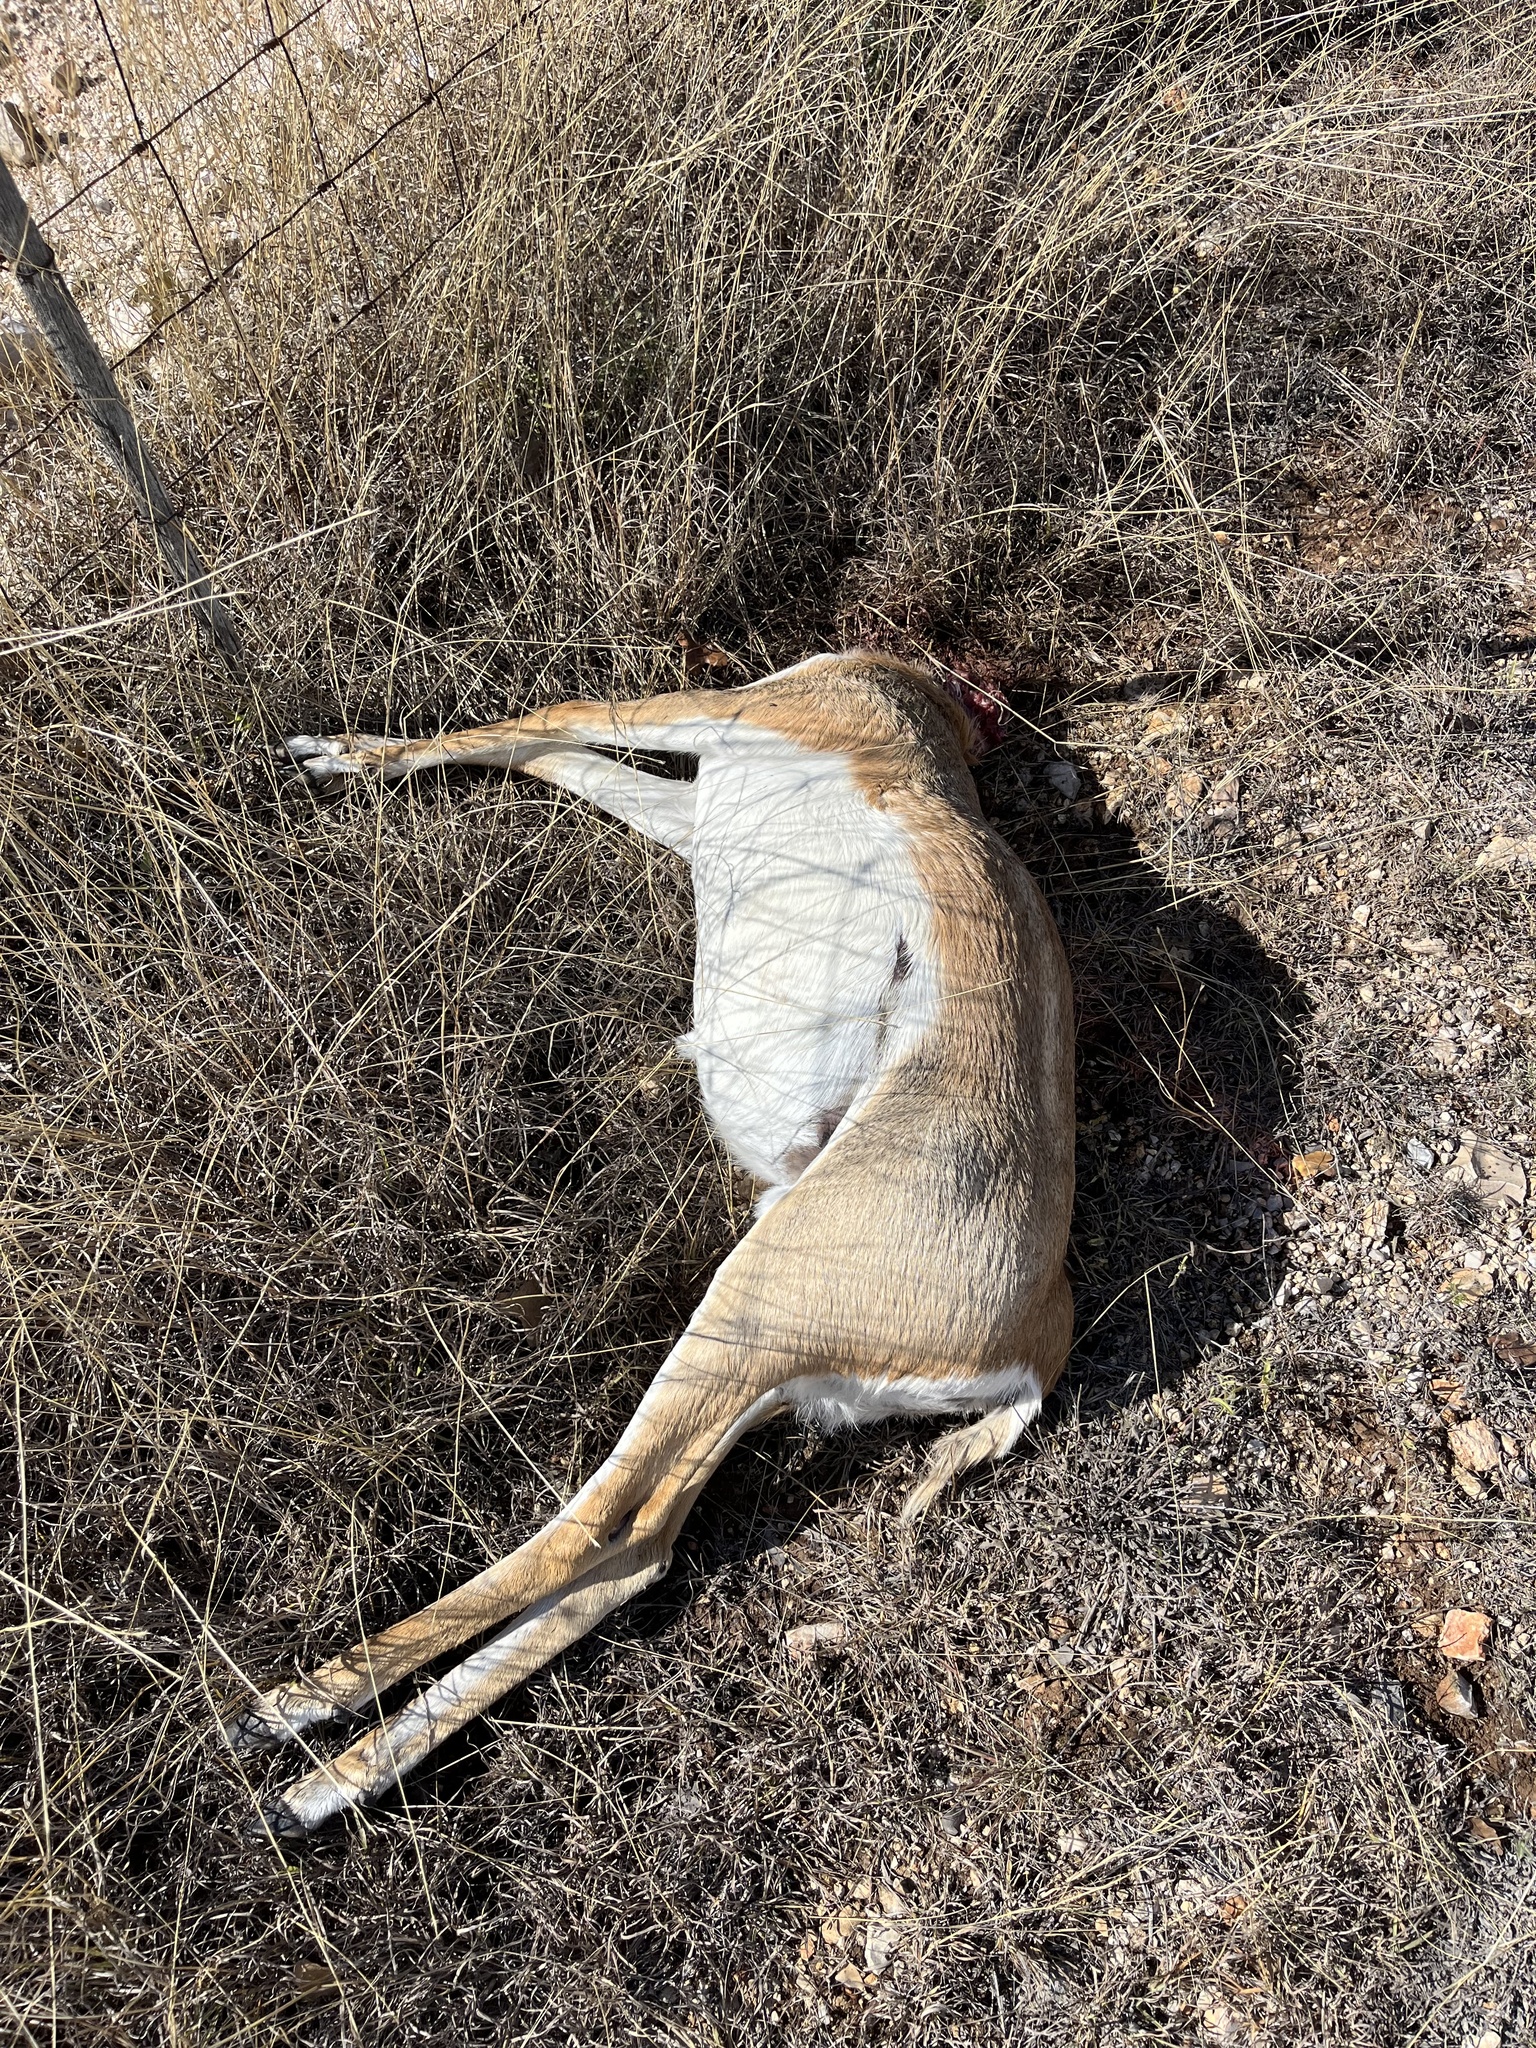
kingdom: Animalia
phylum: Chordata
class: Mammalia
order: Artiodactyla
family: Bovidae
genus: Antilope
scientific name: Antilope cervicapra
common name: Blackbuck
